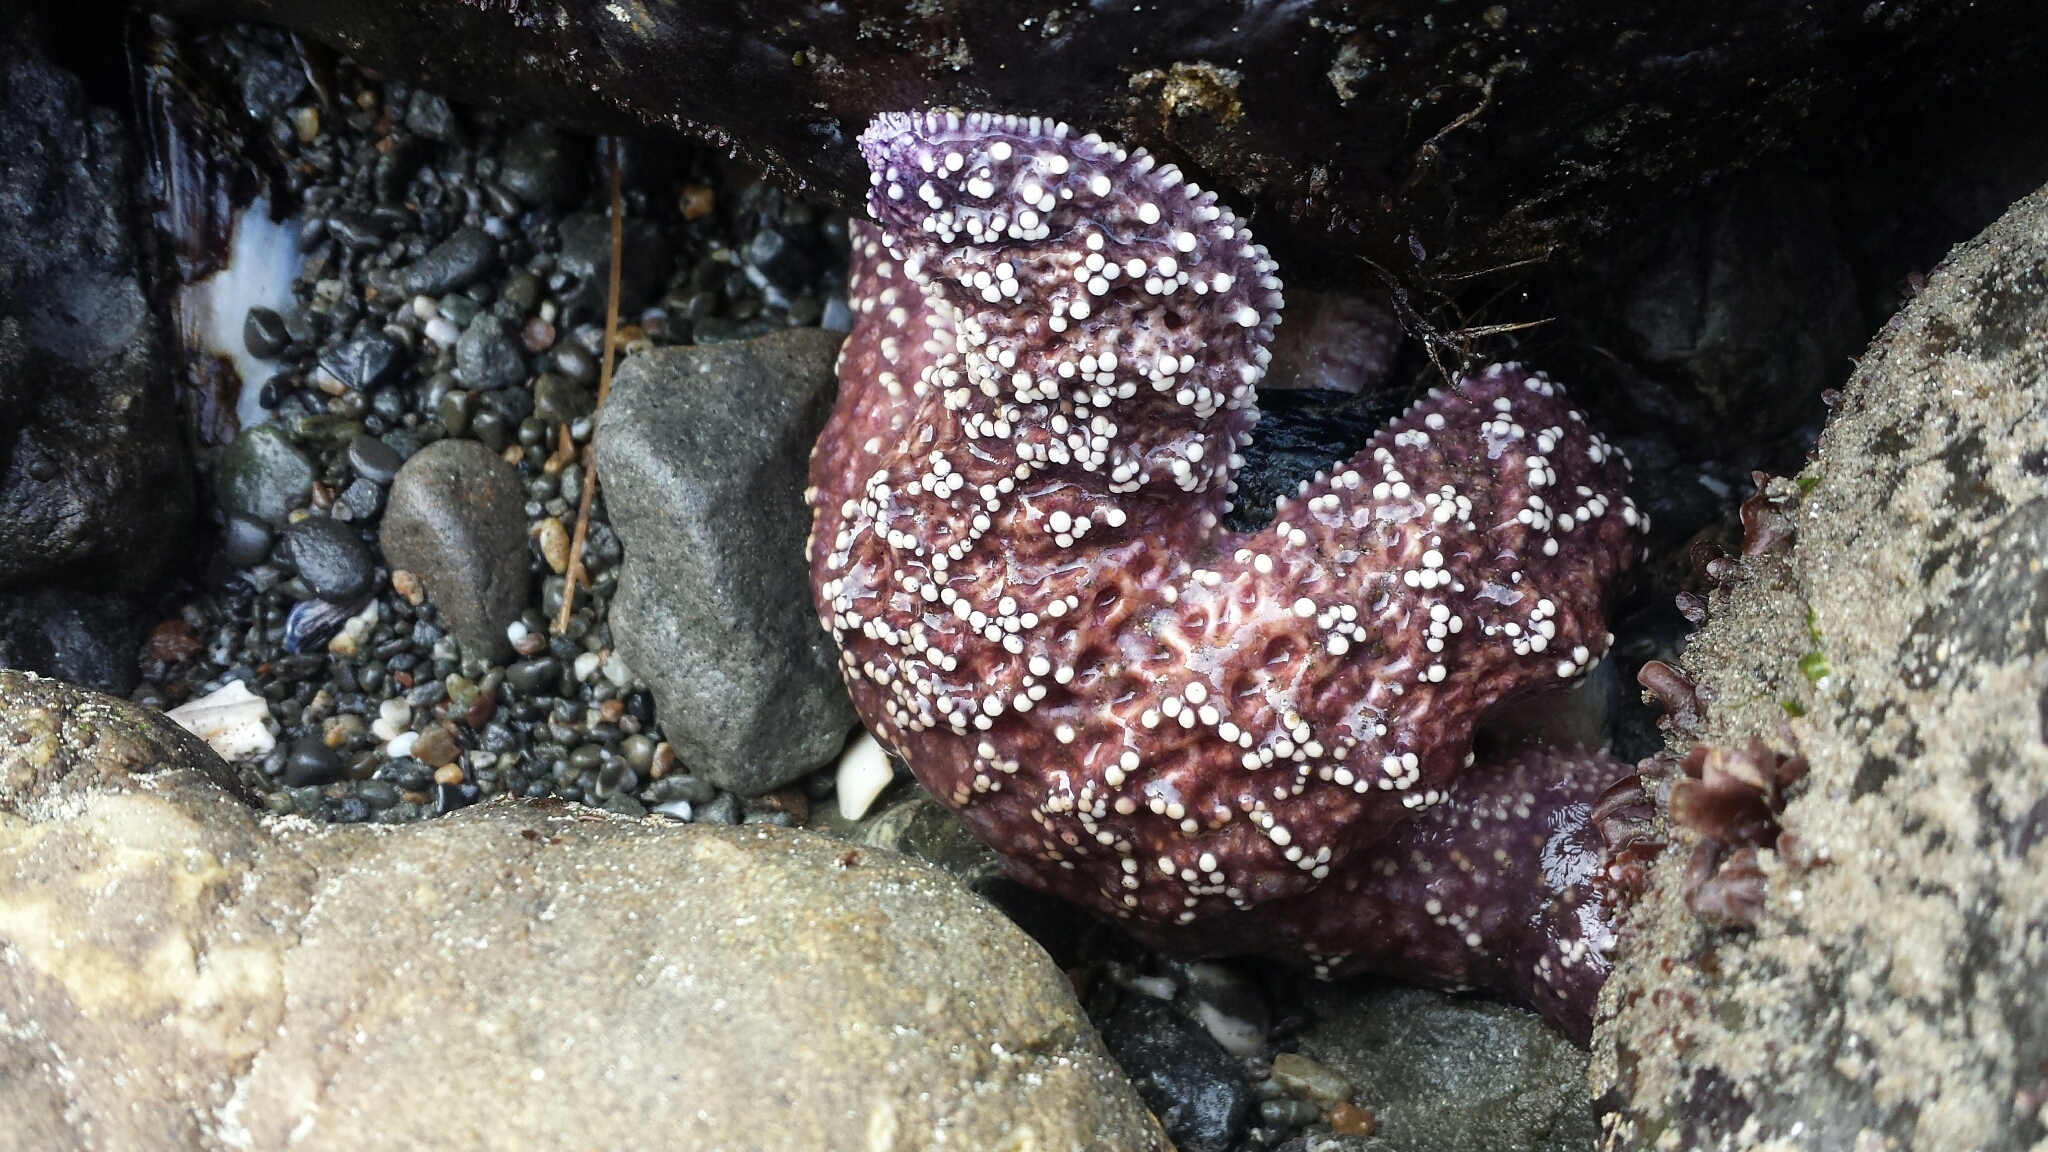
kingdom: Animalia
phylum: Echinodermata
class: Asteroidea
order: Forcipulatida
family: Asteriidae
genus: Pisaster
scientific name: Pisaster ochraceus
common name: Ochre stars
